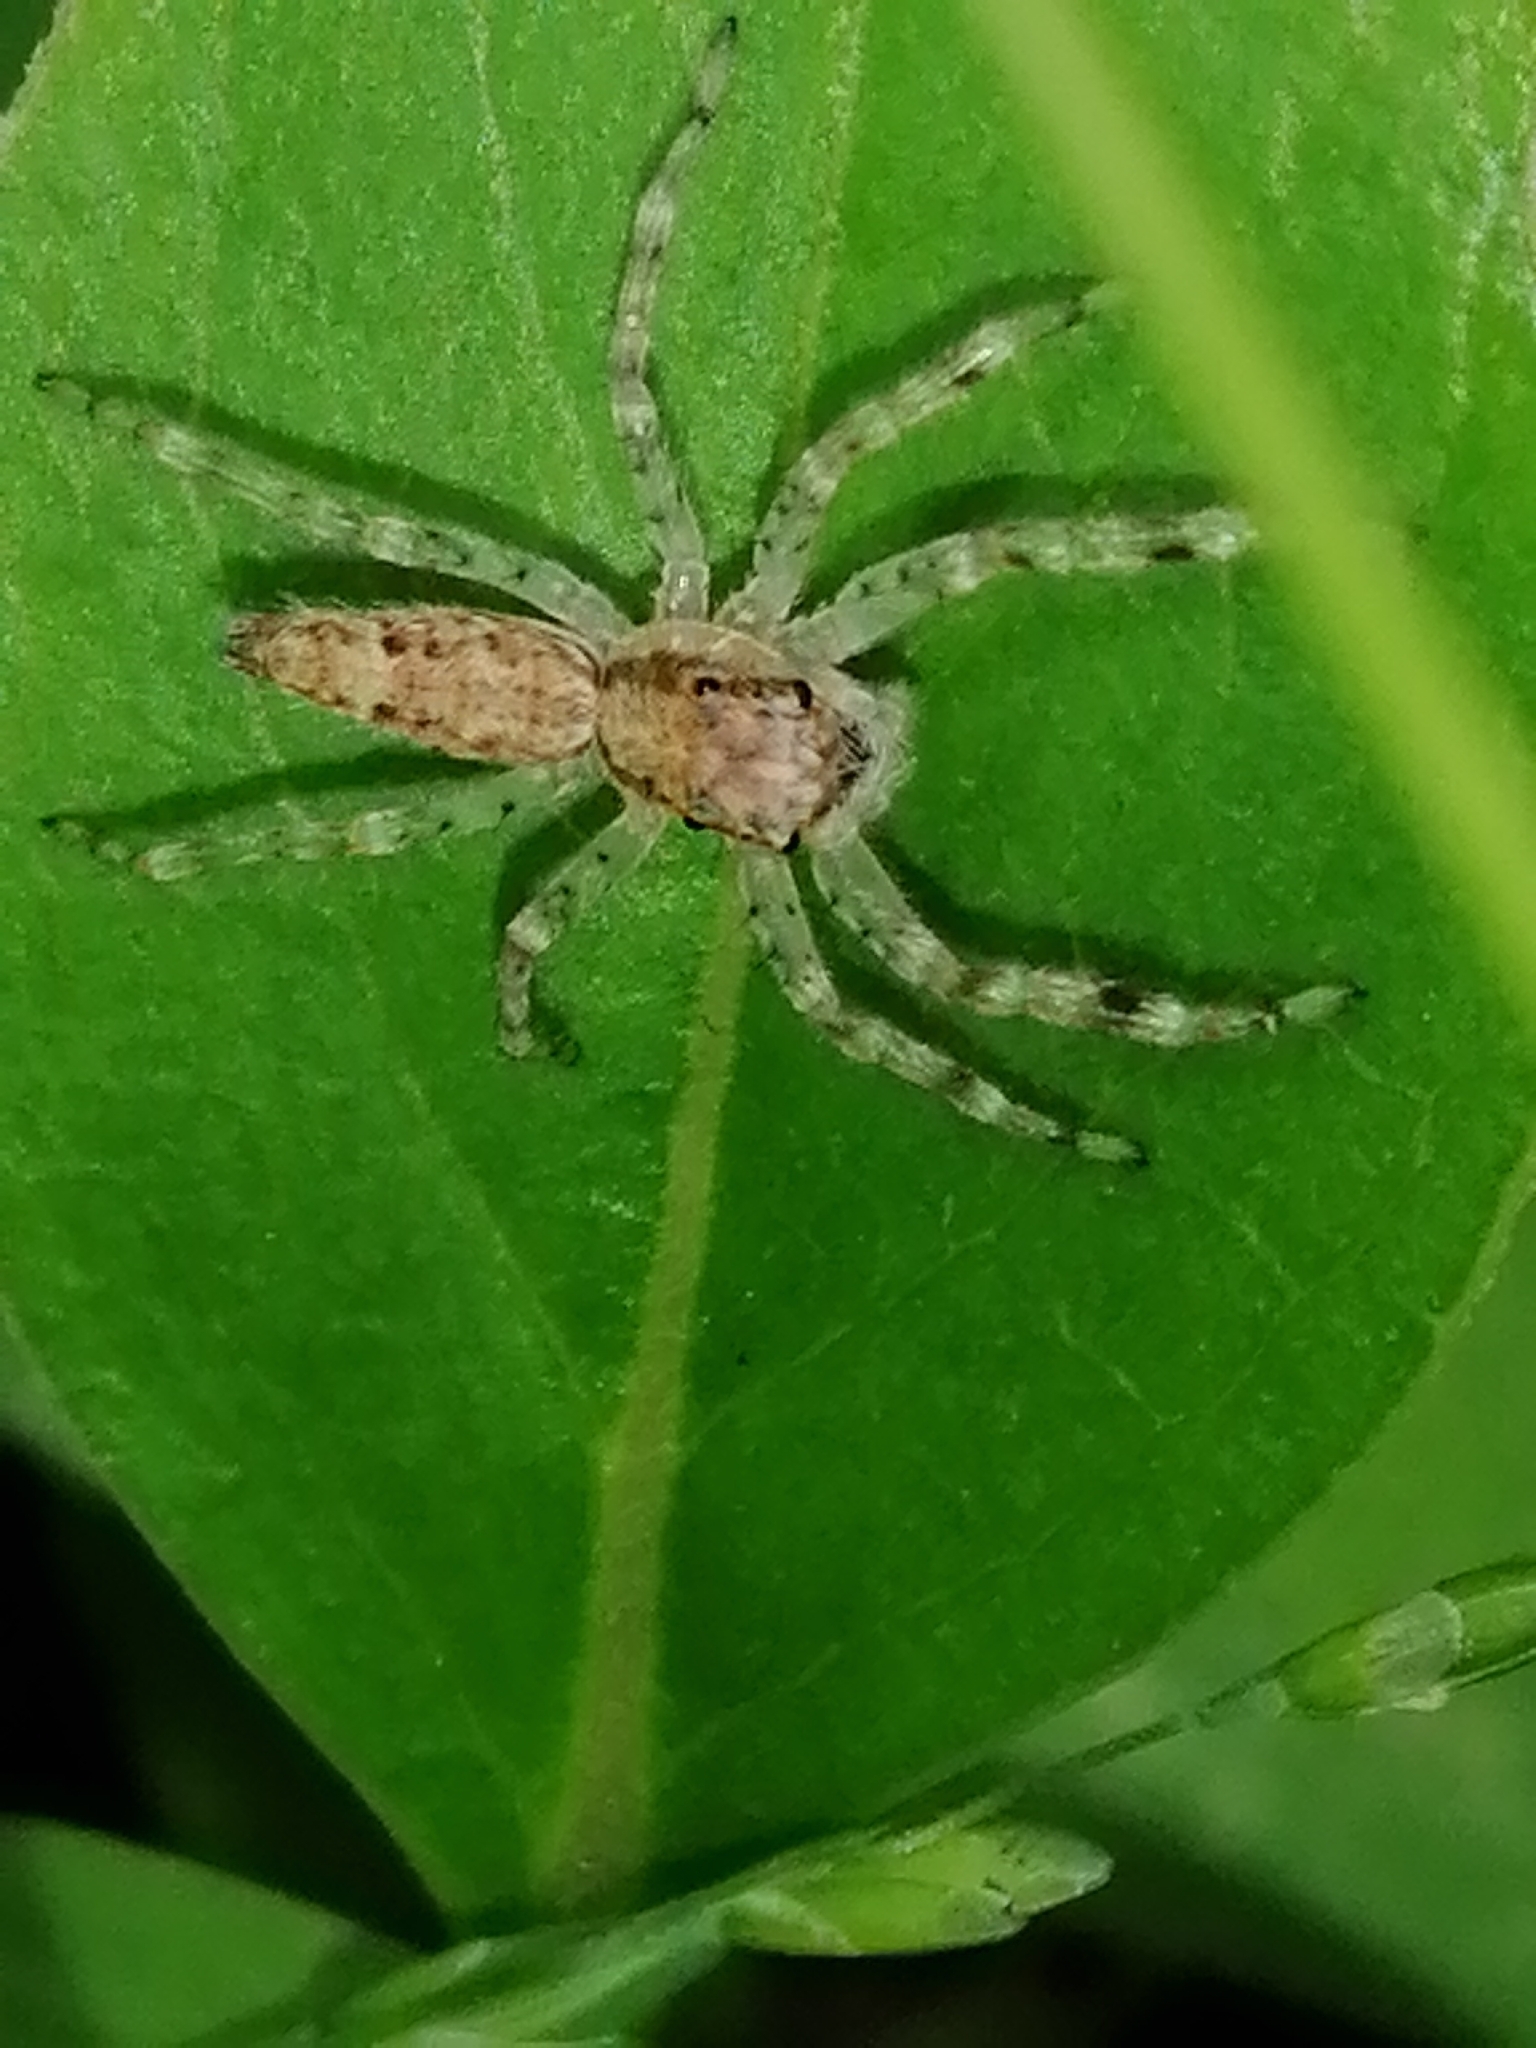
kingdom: Animalia
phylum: Arthropoda
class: Arachnida
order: Araneae
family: Salticidae
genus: Helpis
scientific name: Helpis minitabunda
